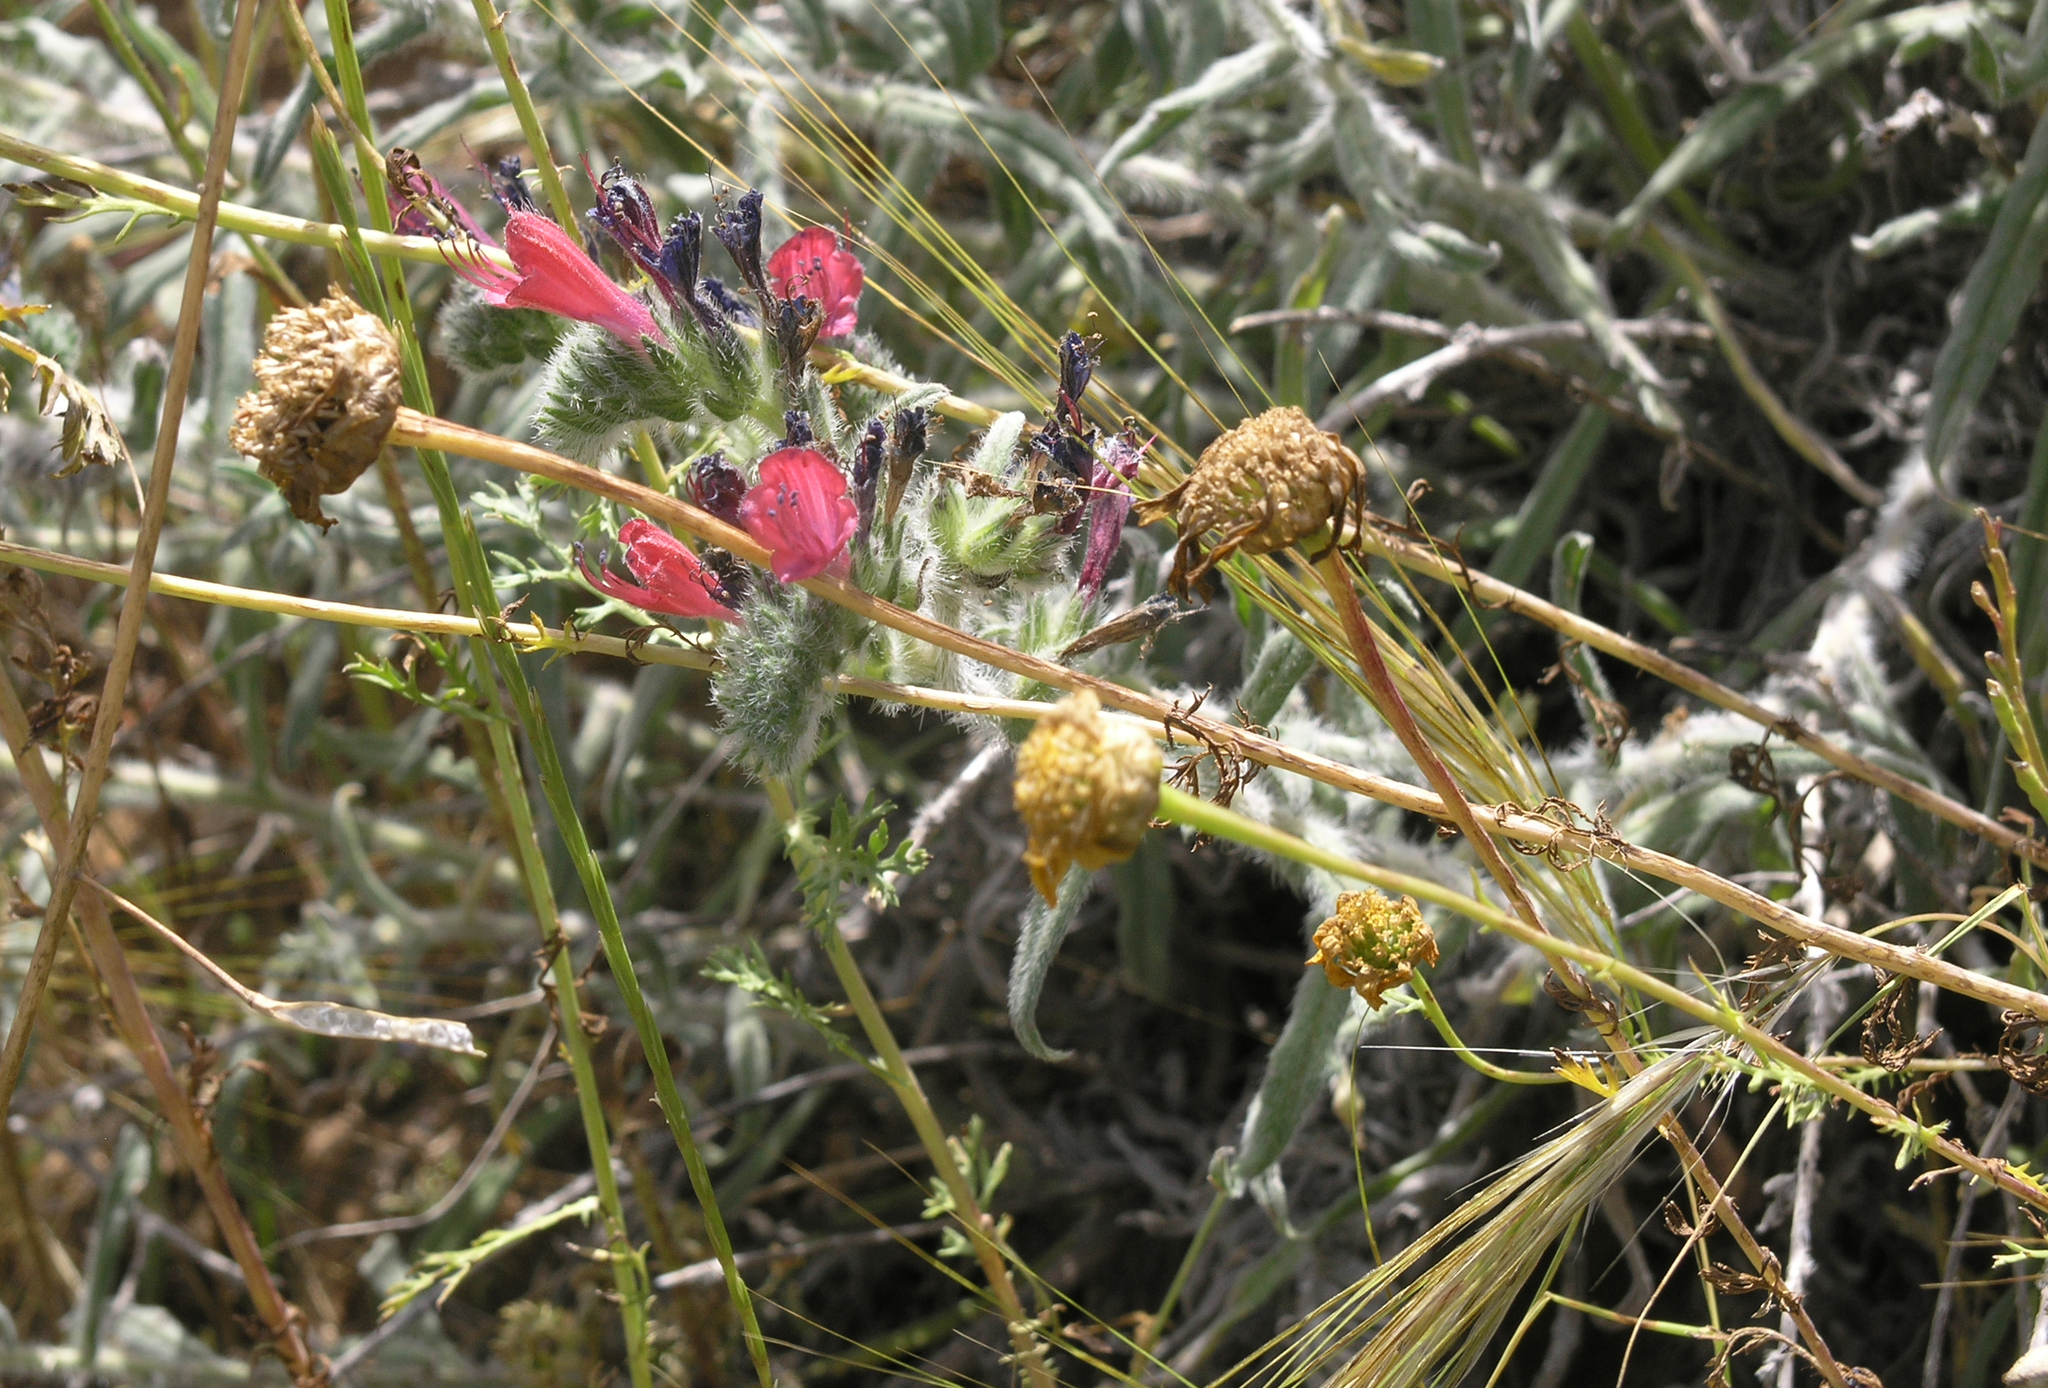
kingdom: Plantae
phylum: Tracheophyta
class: Magnoliopsida
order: Asterales
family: Asteraceae
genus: Glebionis
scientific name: Glebionis coronaria
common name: Crowndaisy
